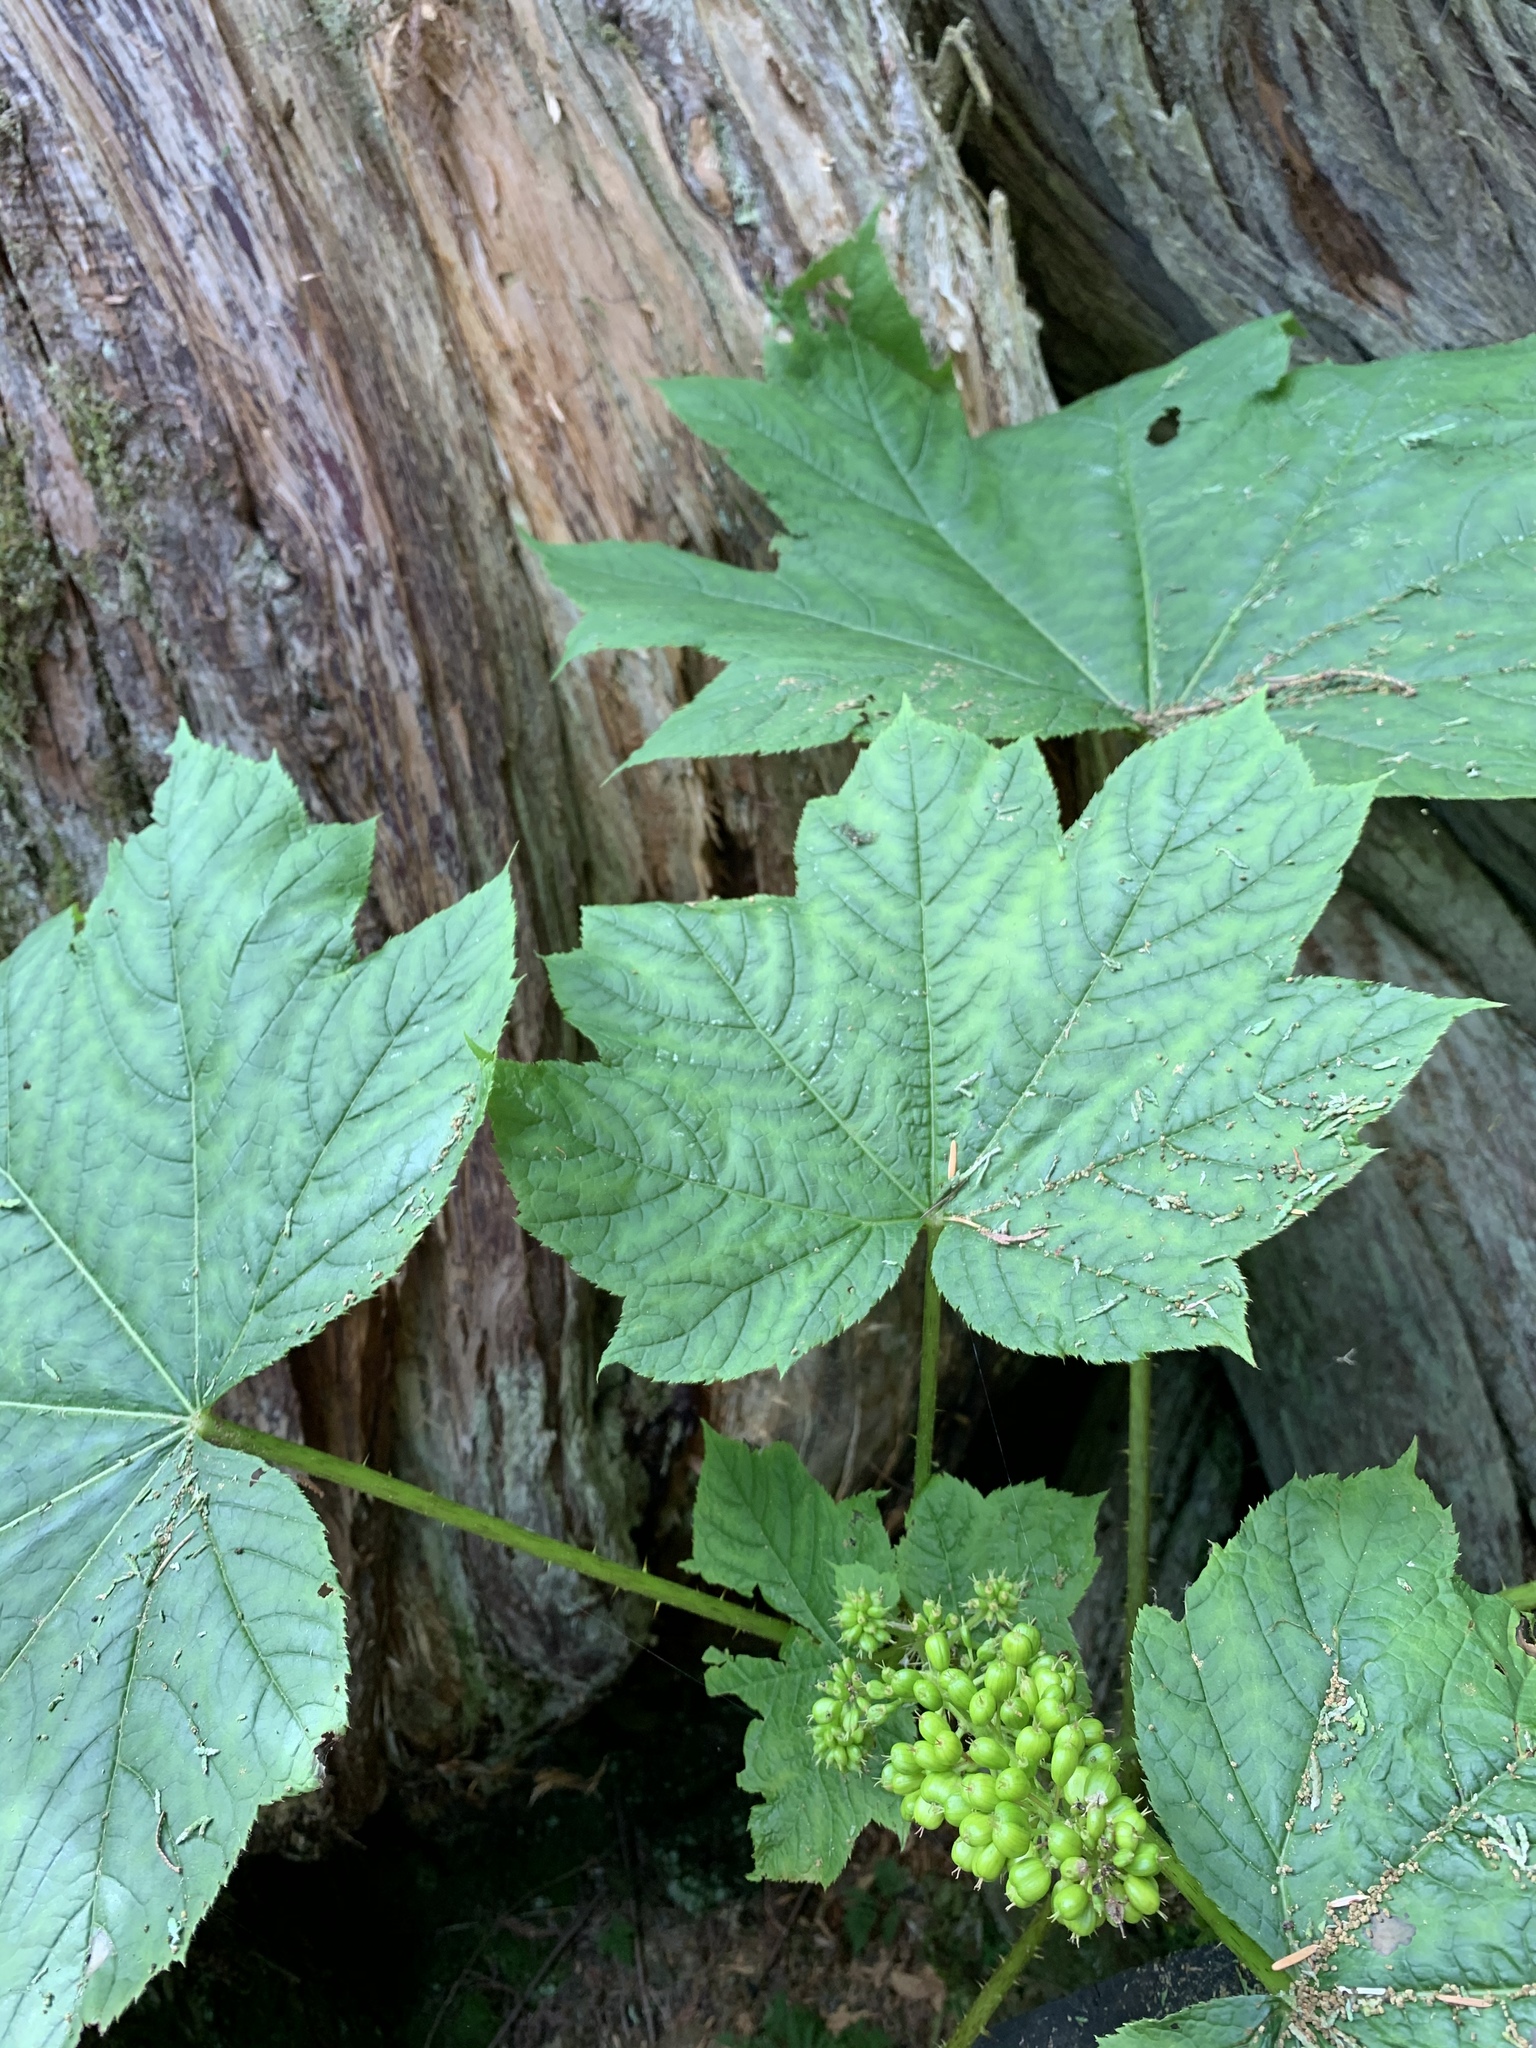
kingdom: Plantae
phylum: Tracheophyta
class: Magnoliopsida
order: Apiales
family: Araliaceae
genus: Oplopanax
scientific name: Oplopanax horridus
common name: Devil's walking-stick
